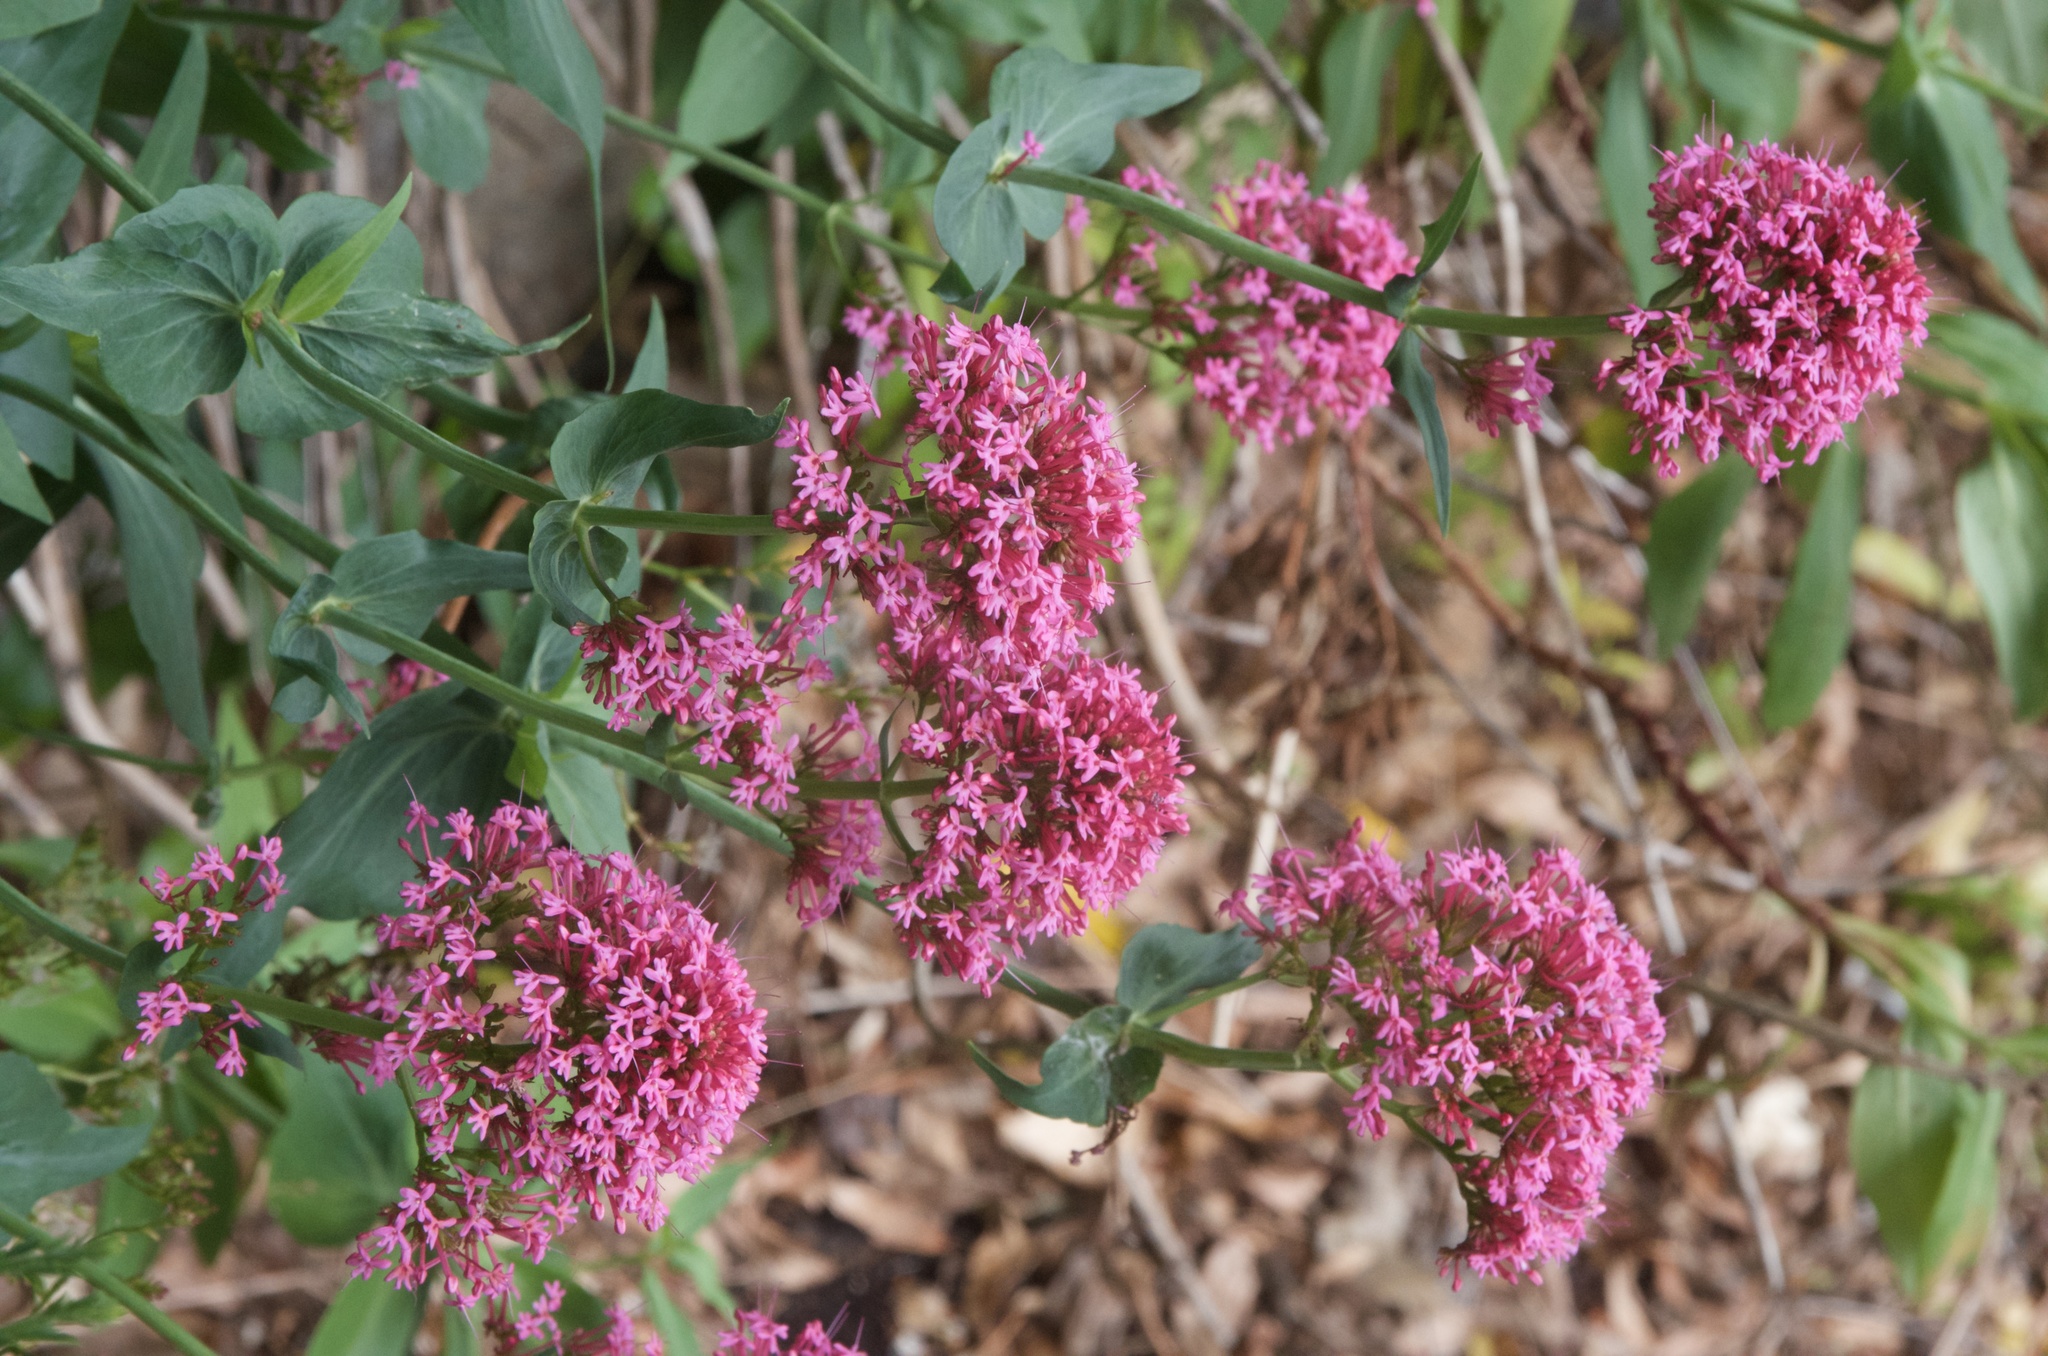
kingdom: Plantae
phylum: Tracheophyta
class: Magnoliopsida
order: Dipsacales
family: Caprifoliaceae
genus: Centranthus
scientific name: Centranthus ruber
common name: Red valerian
